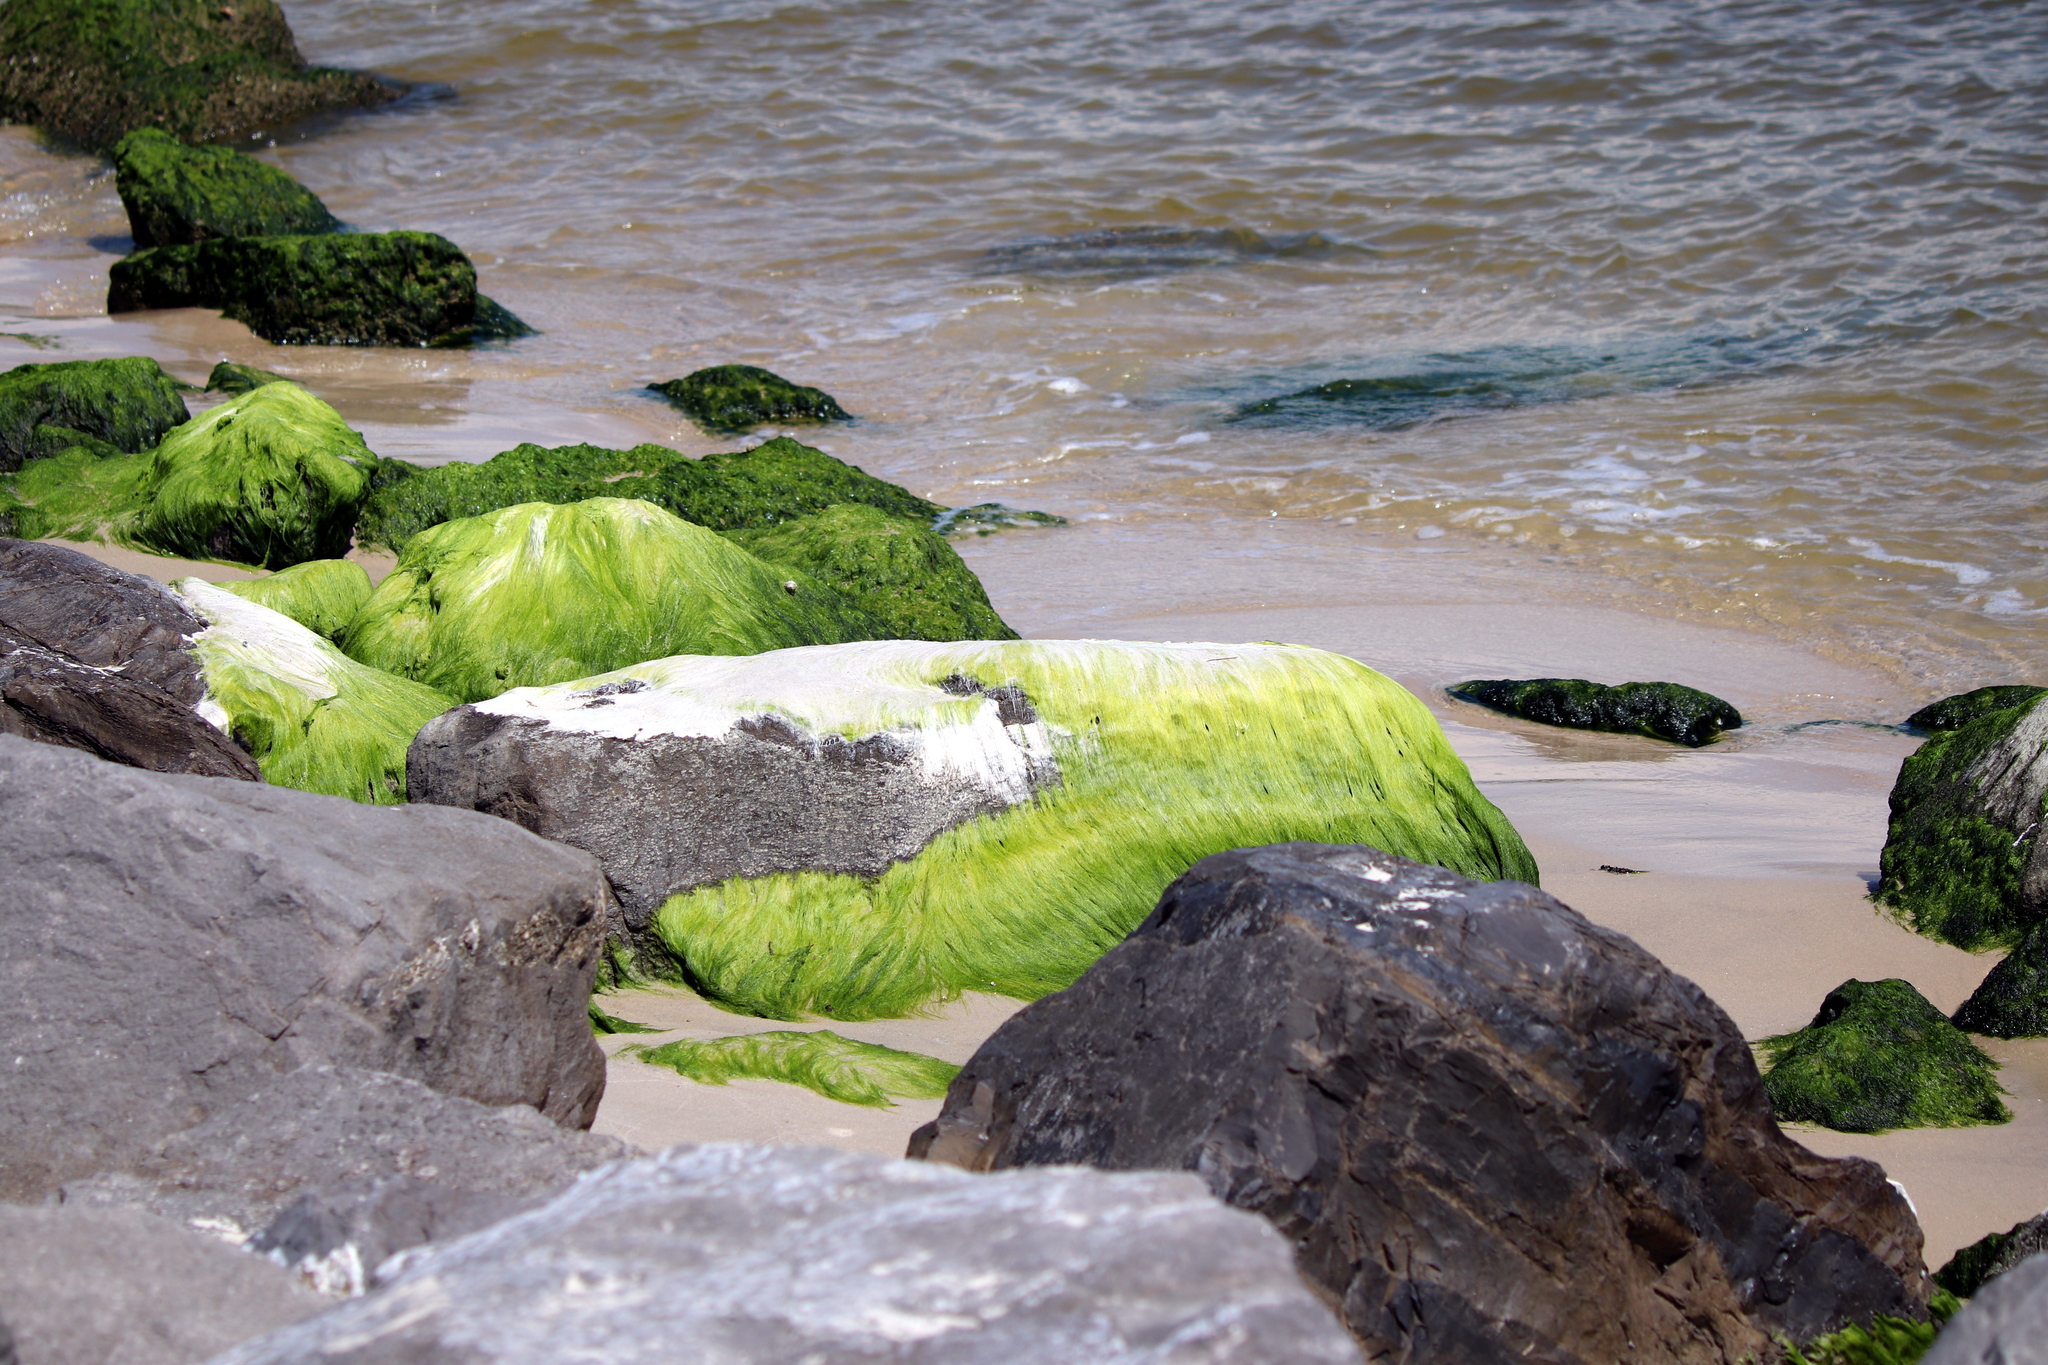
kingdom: Plantae
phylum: Chlorophyta
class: Ulvophyceae
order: Ulvales
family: Ulvaceae
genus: Ulva
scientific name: Ulva intestinalis
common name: Gut weed
